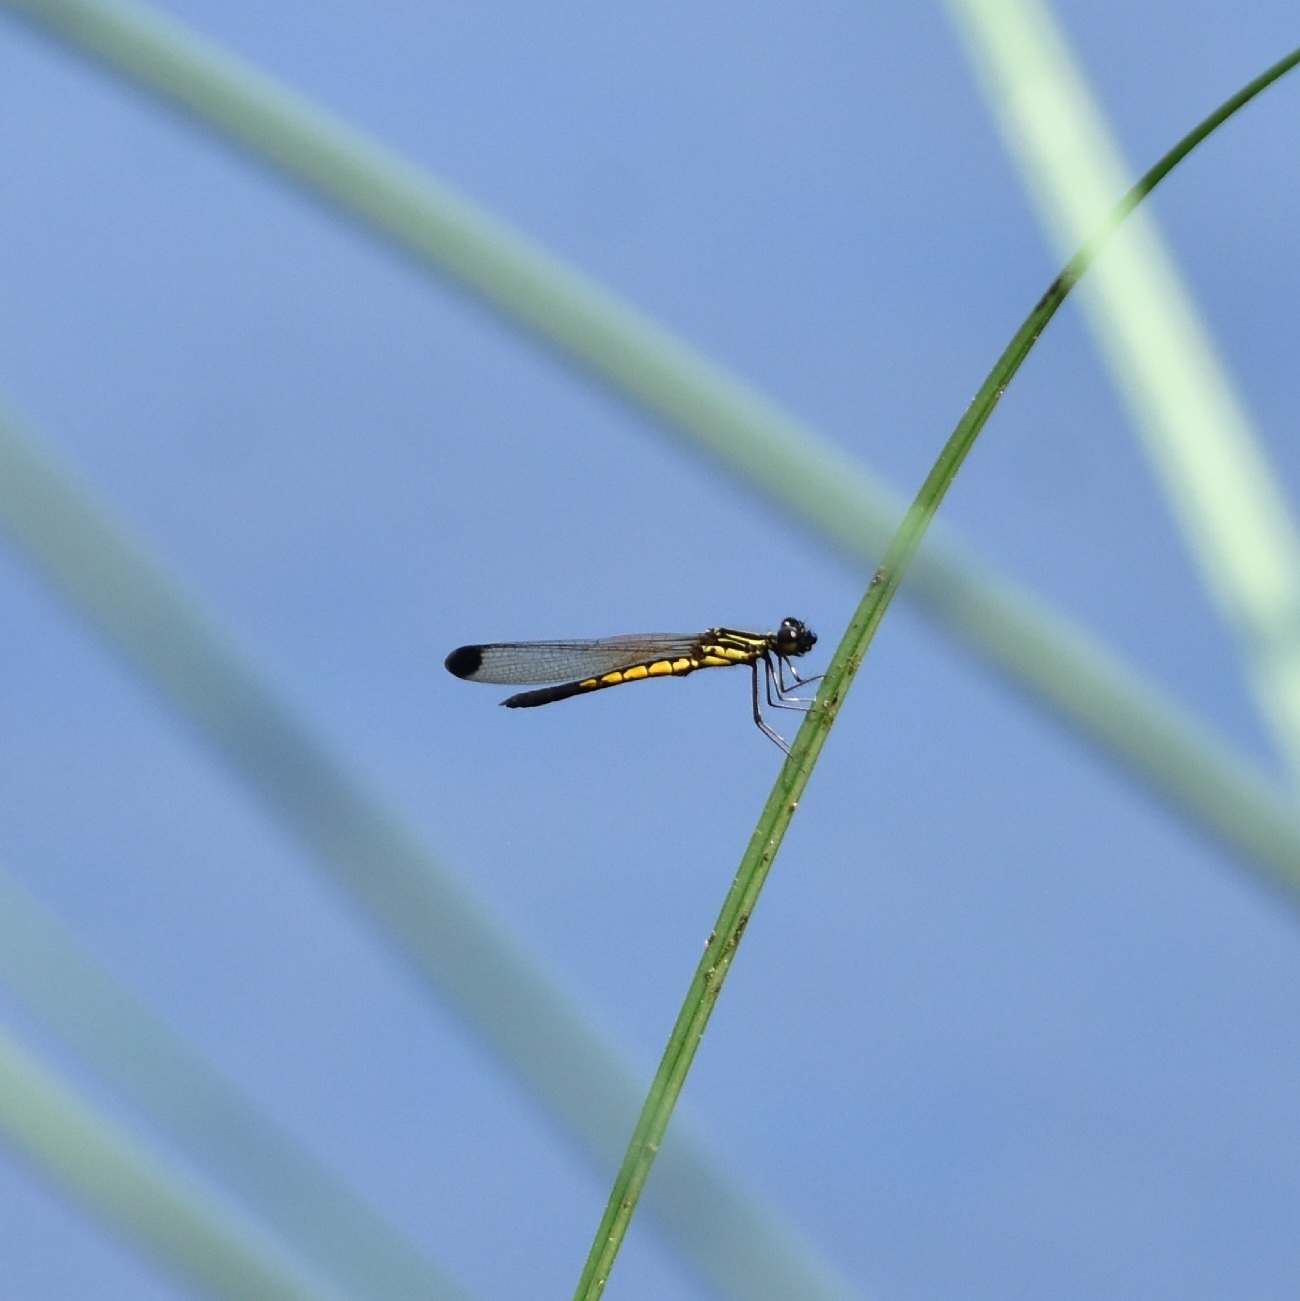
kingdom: Animalia
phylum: Arthropoda
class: Insecta
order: Odonata
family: Chlorocyphidae
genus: Libellago
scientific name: Libellago indica
